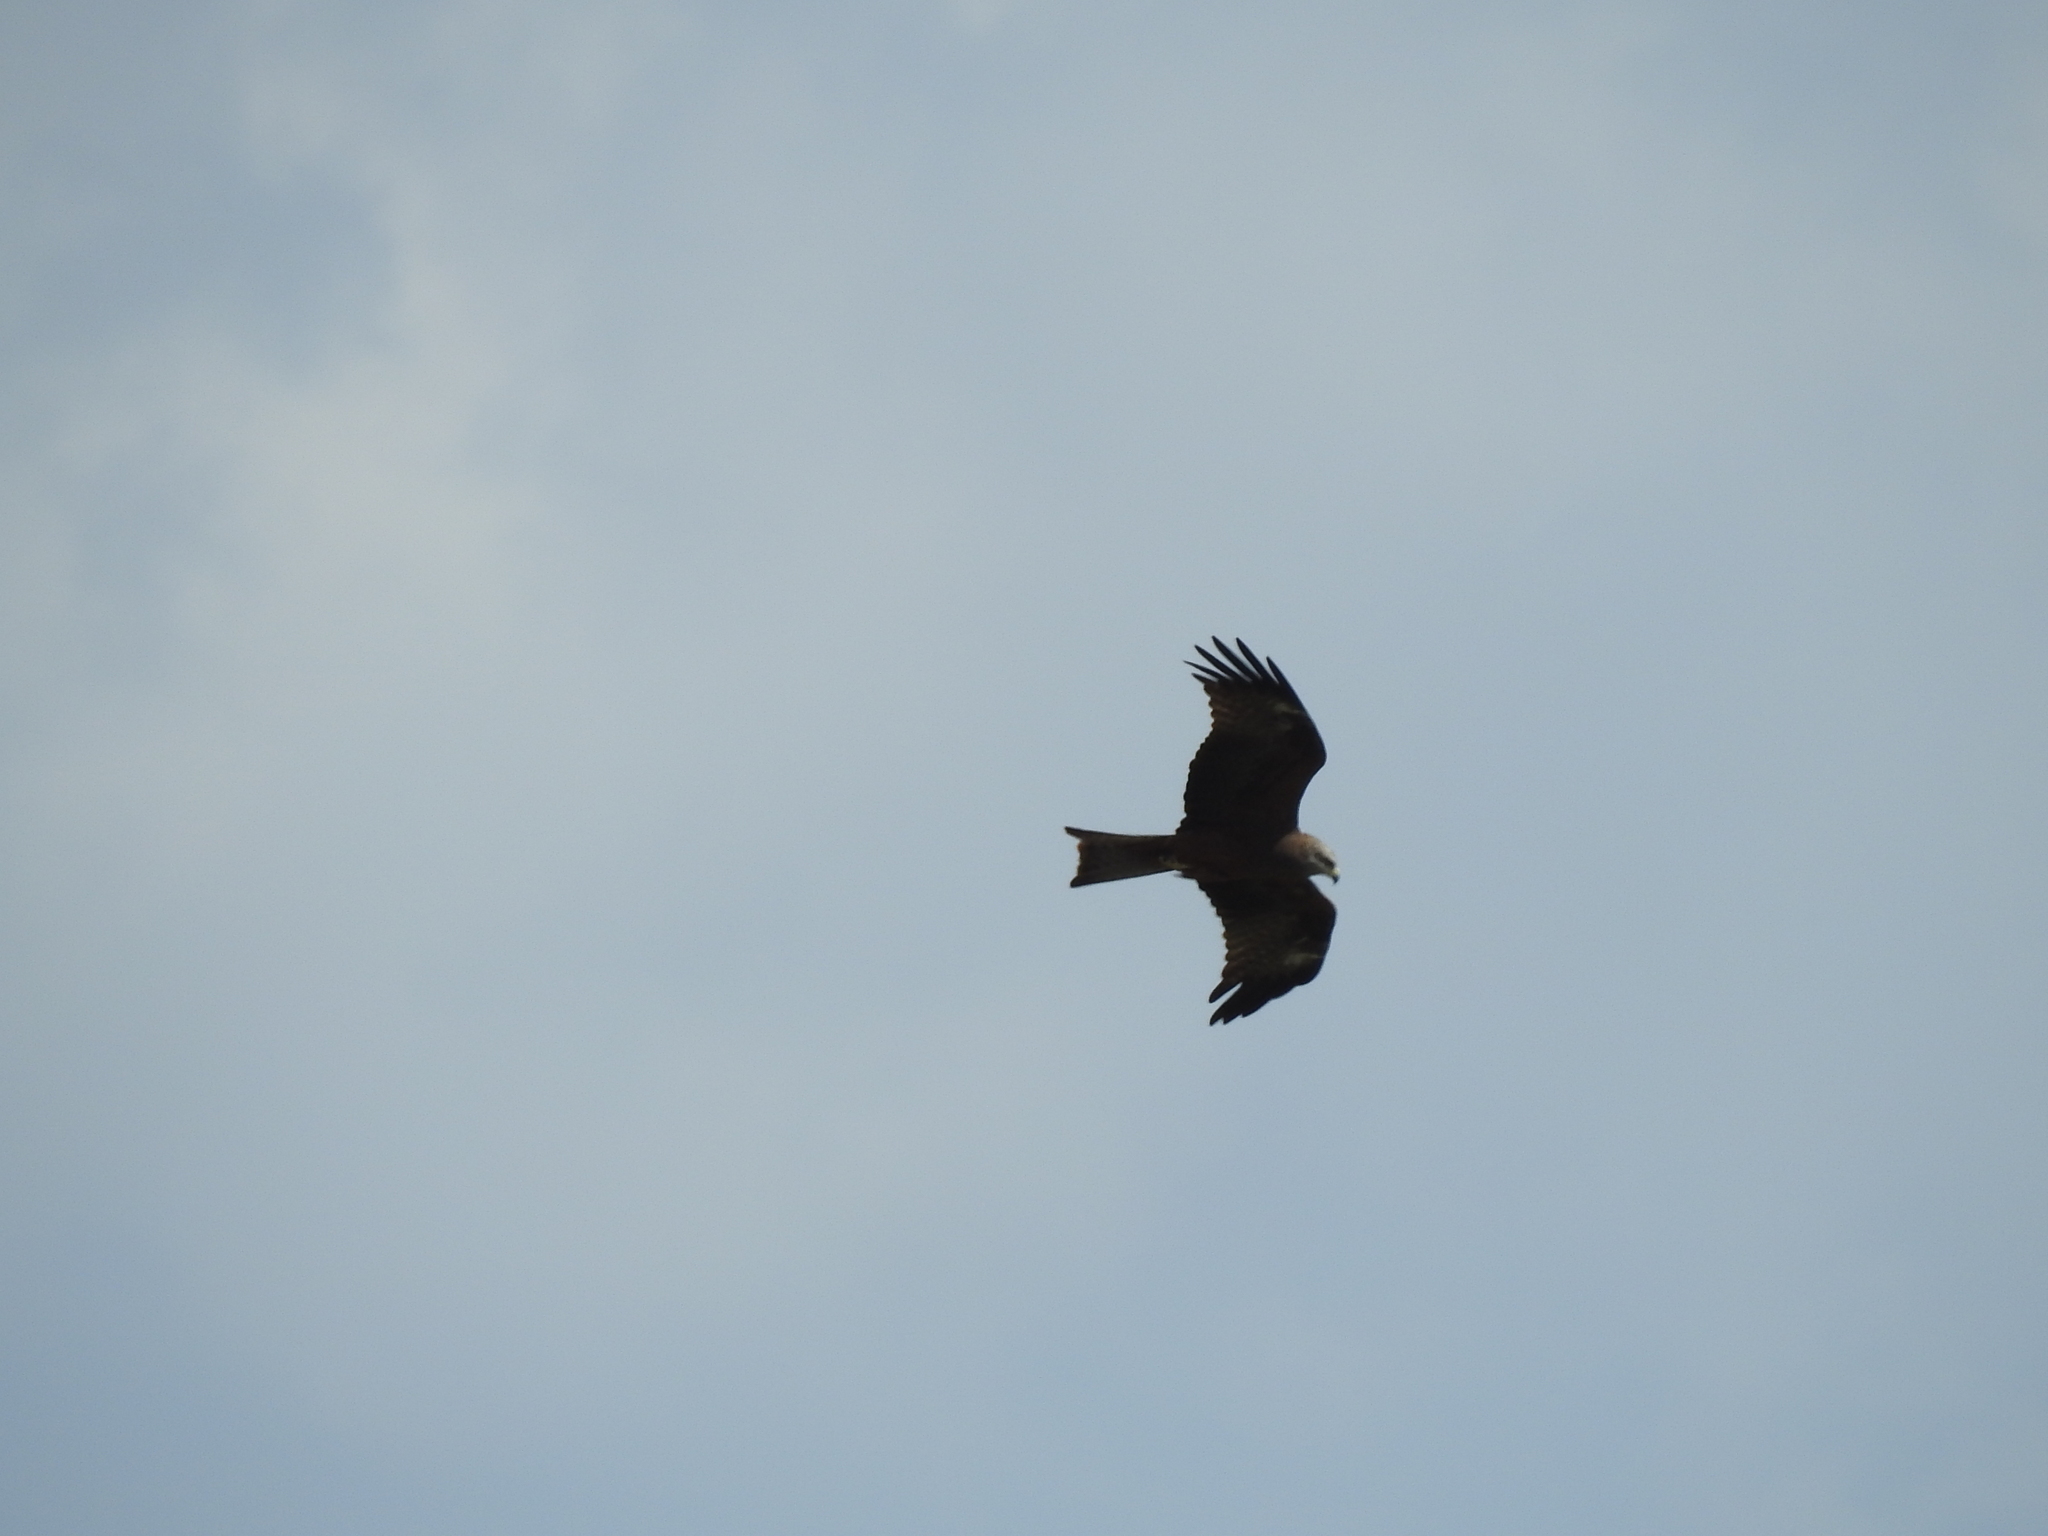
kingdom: Animalia
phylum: Chordata
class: Aves
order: Accipitriformes
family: Accipitridae
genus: Milvus
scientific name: Milvus migrans
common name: Black kite
